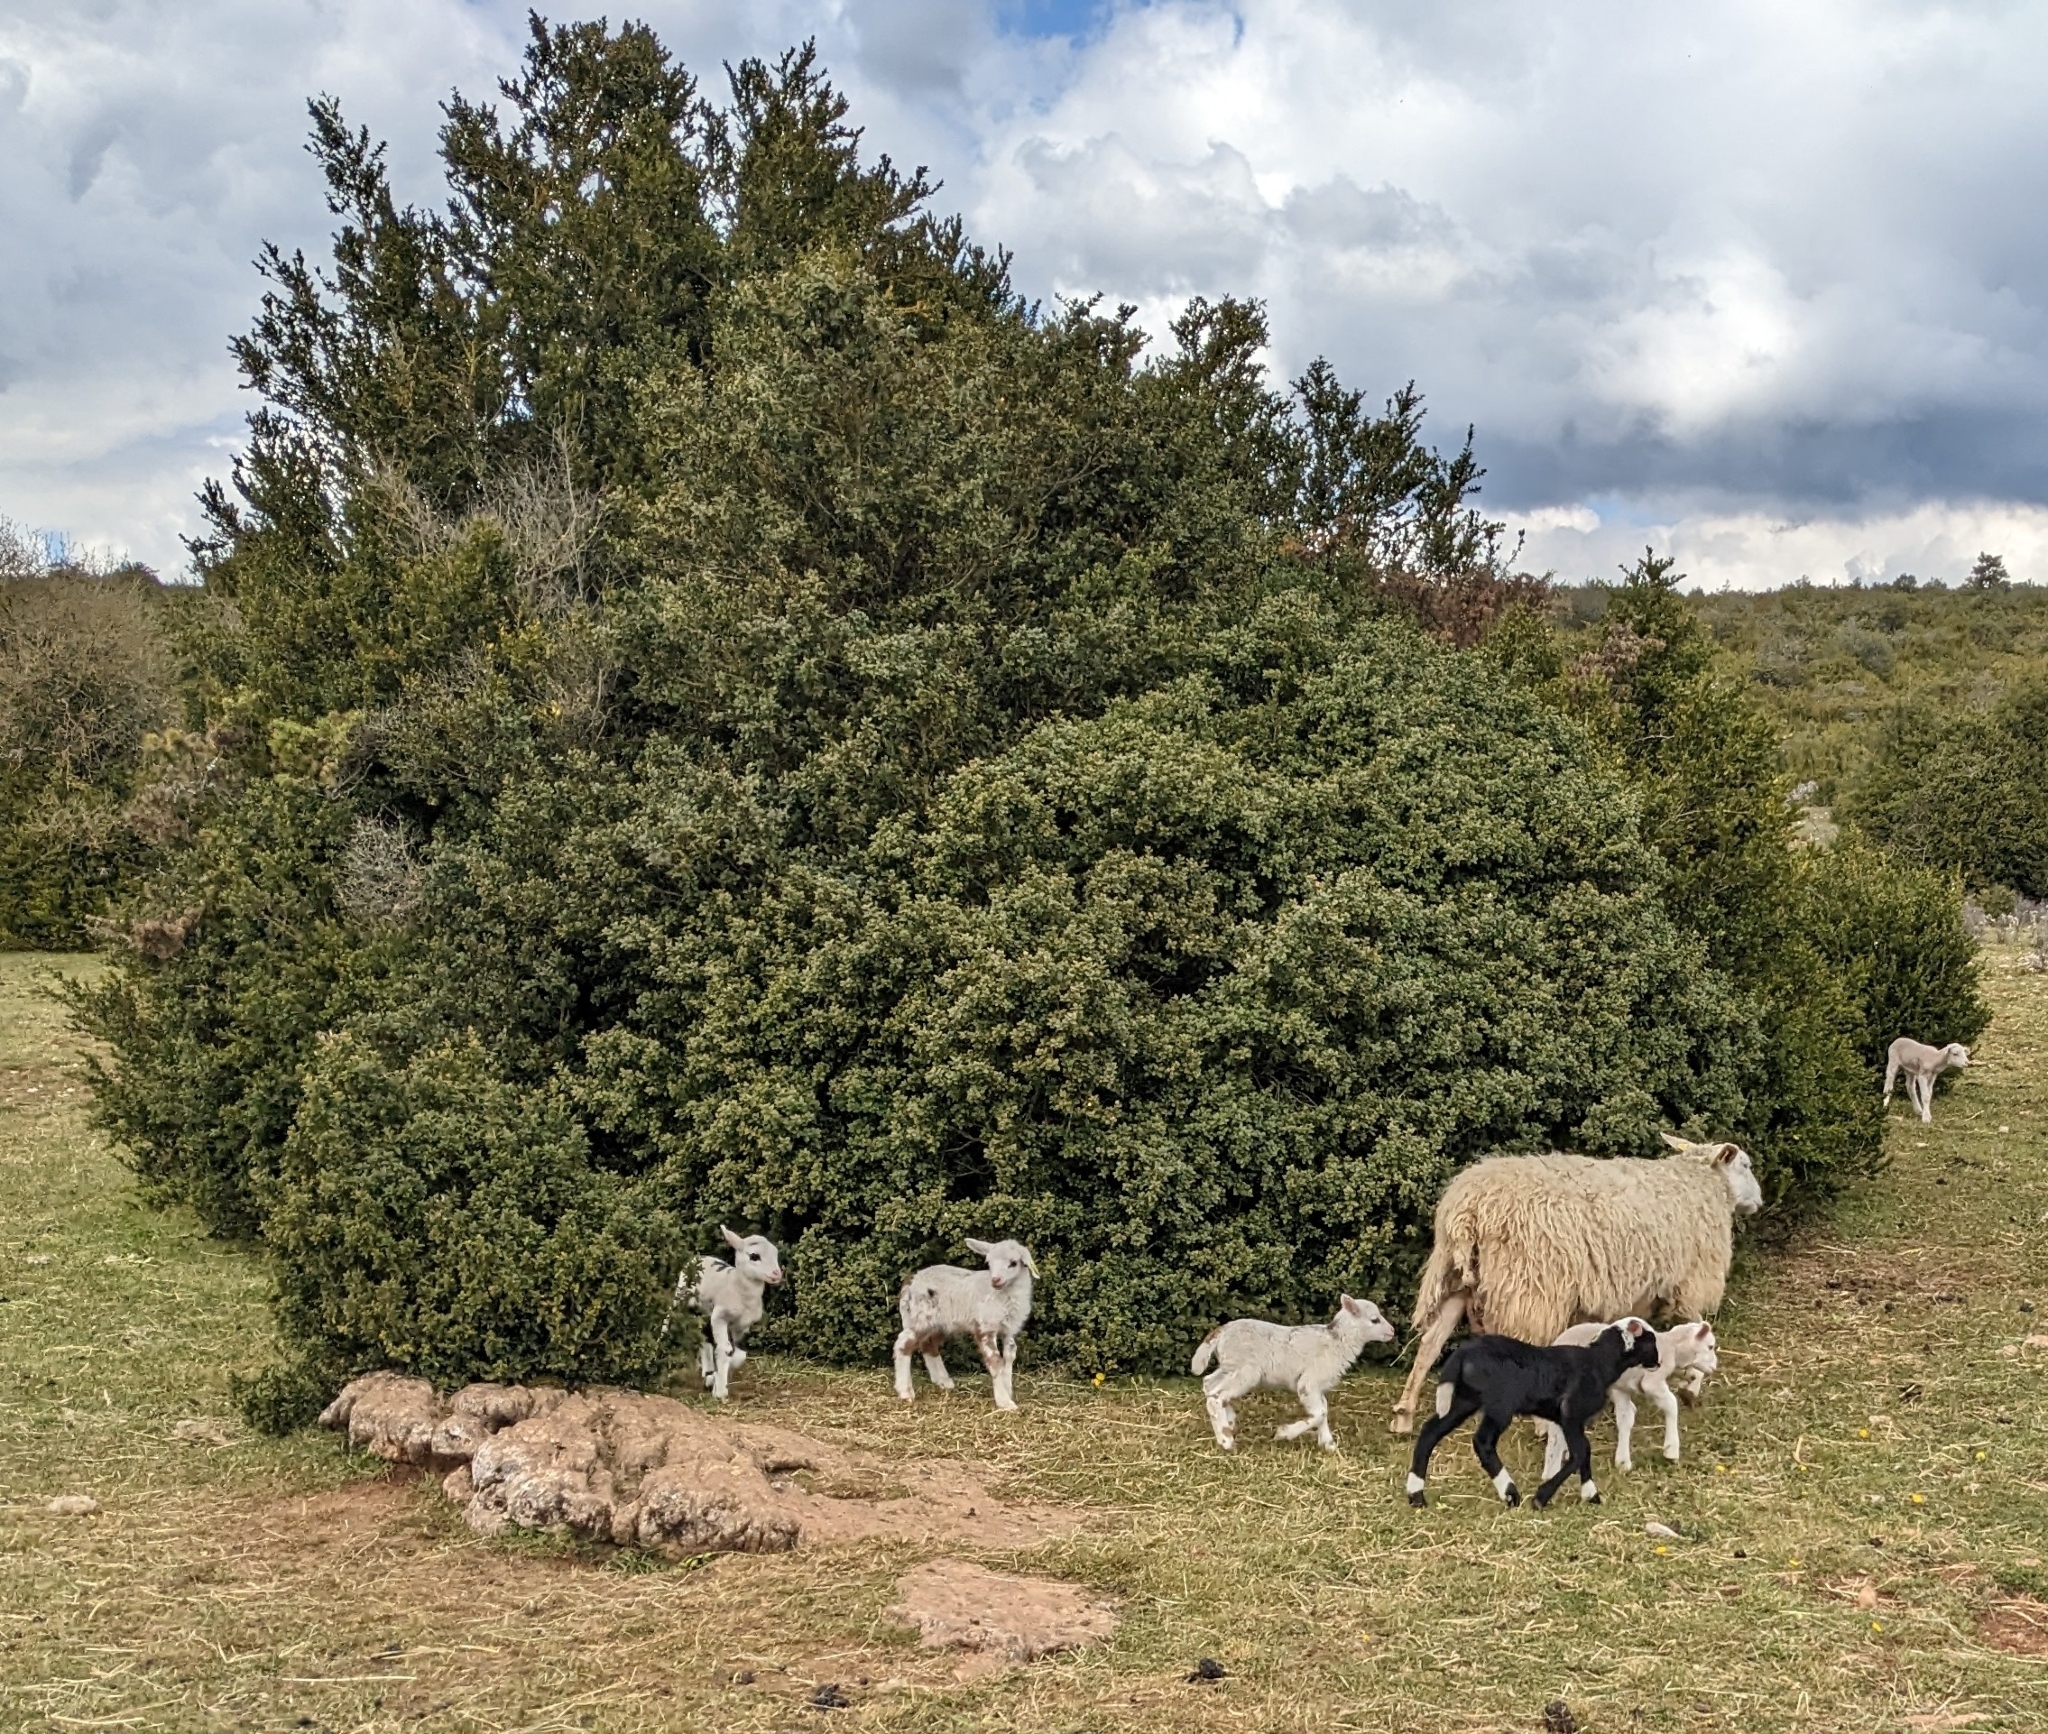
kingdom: Plantae
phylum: Tracheophyta
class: Magnoliopsida
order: Buxales
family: Buxaceae
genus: Buxus
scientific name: Buxus sempervirens
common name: Box
